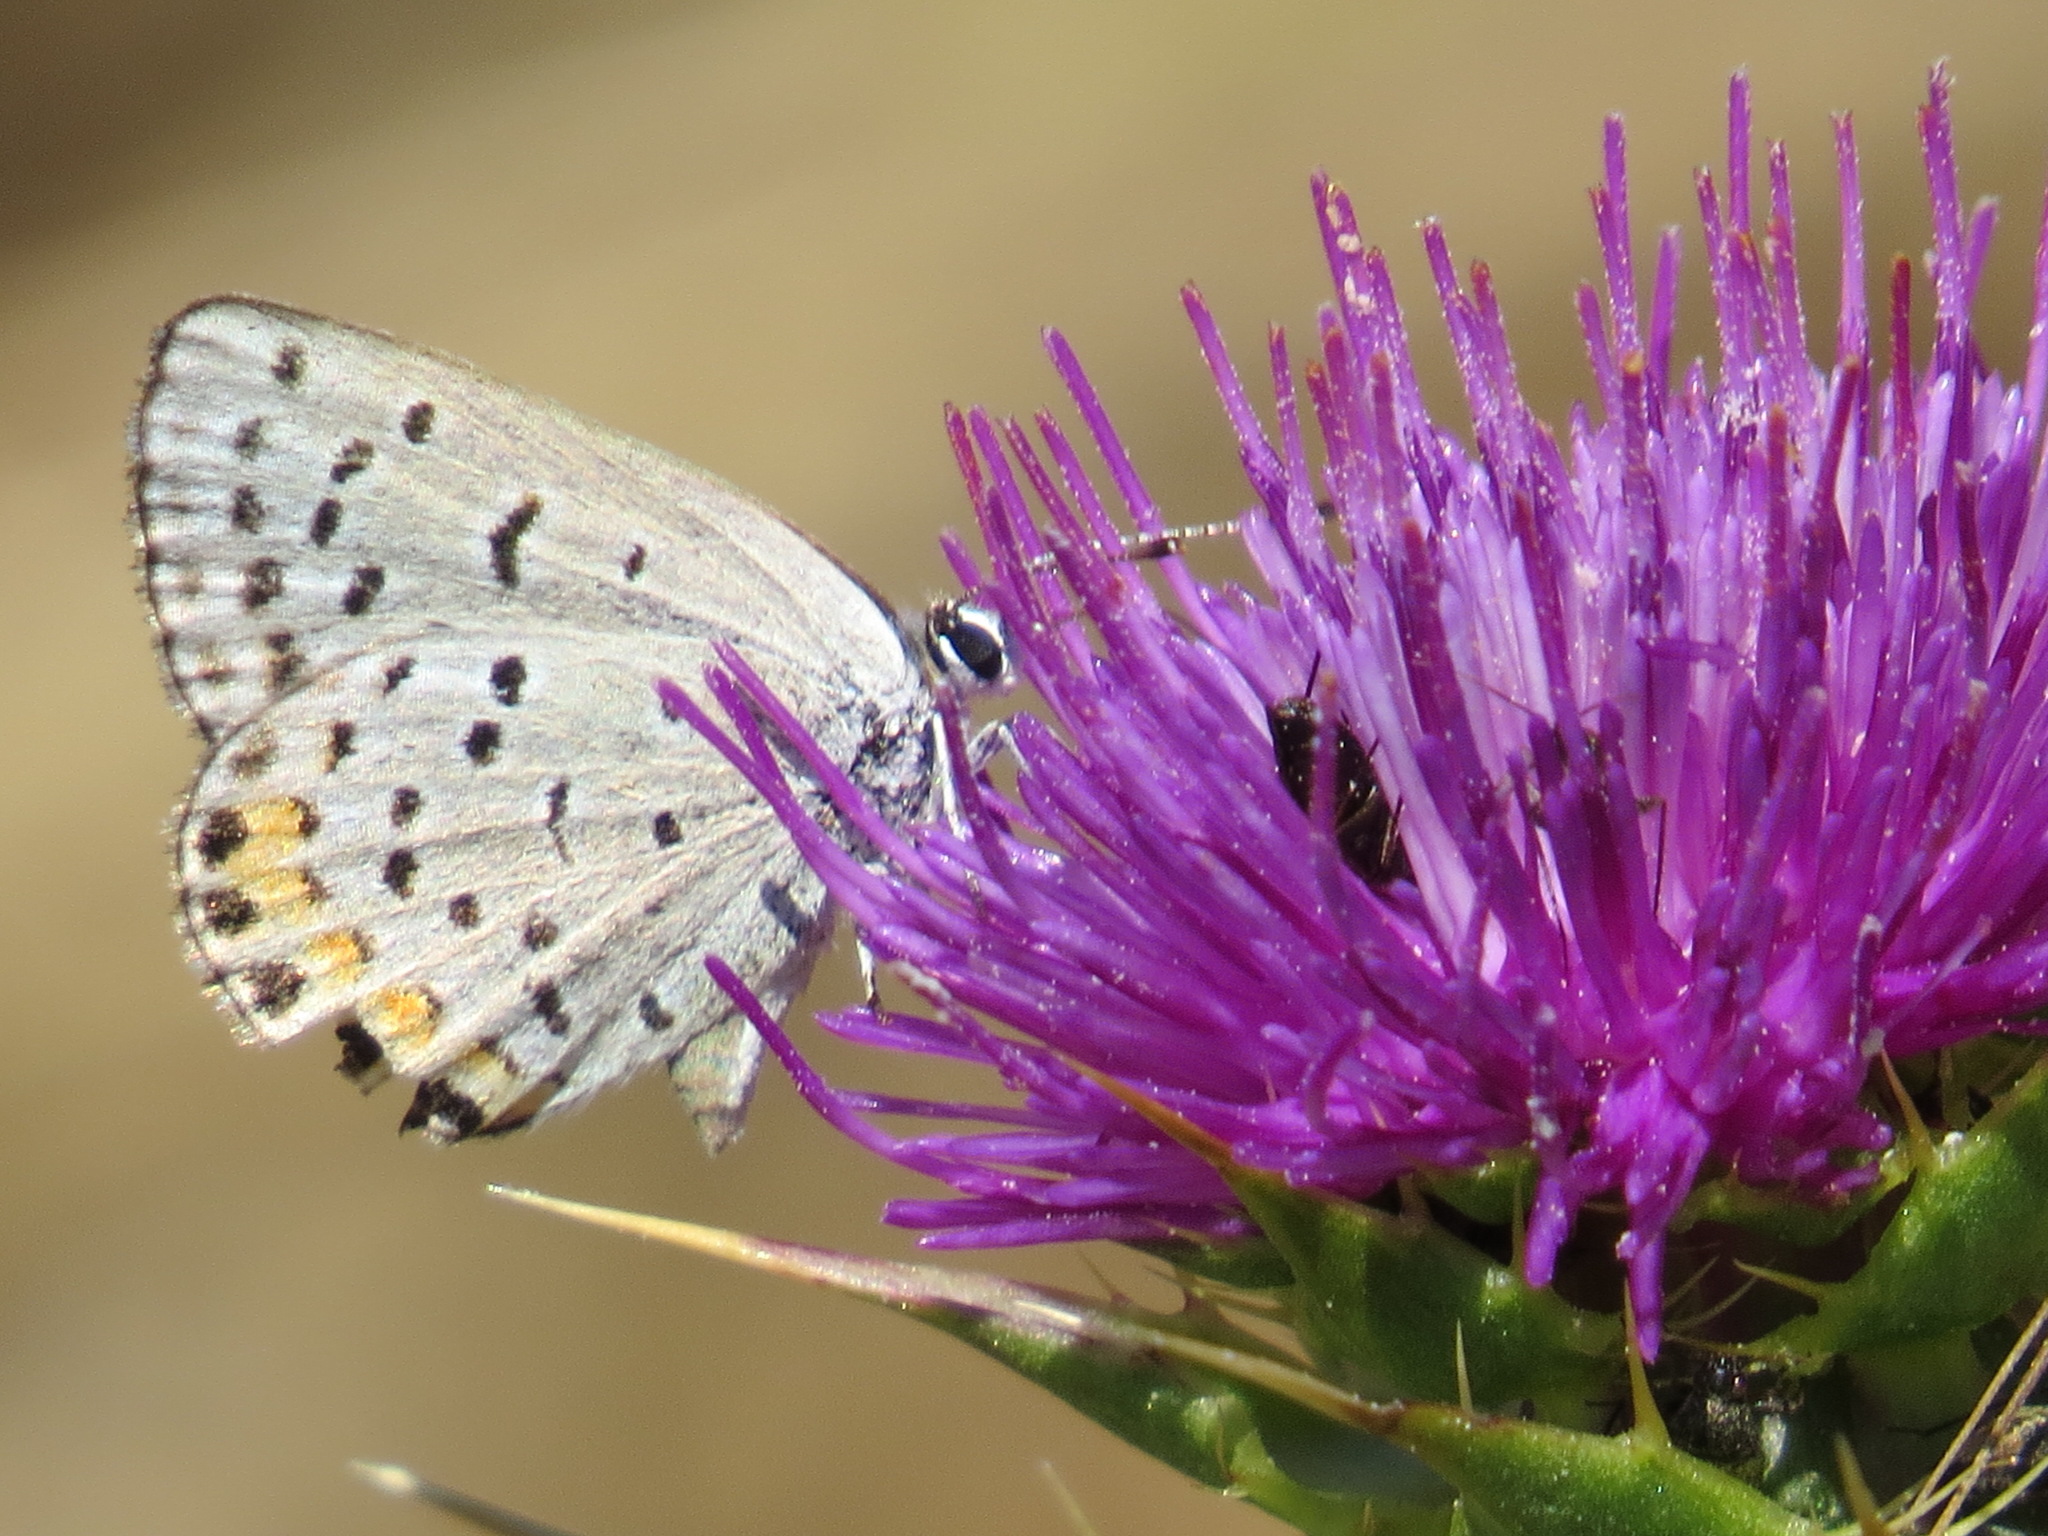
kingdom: Animalia
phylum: Arthropoda
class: Insecta
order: Lepidoptera
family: Lycaenidae
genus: Icaricia
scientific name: Icaricia acmon
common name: Acmon blue
